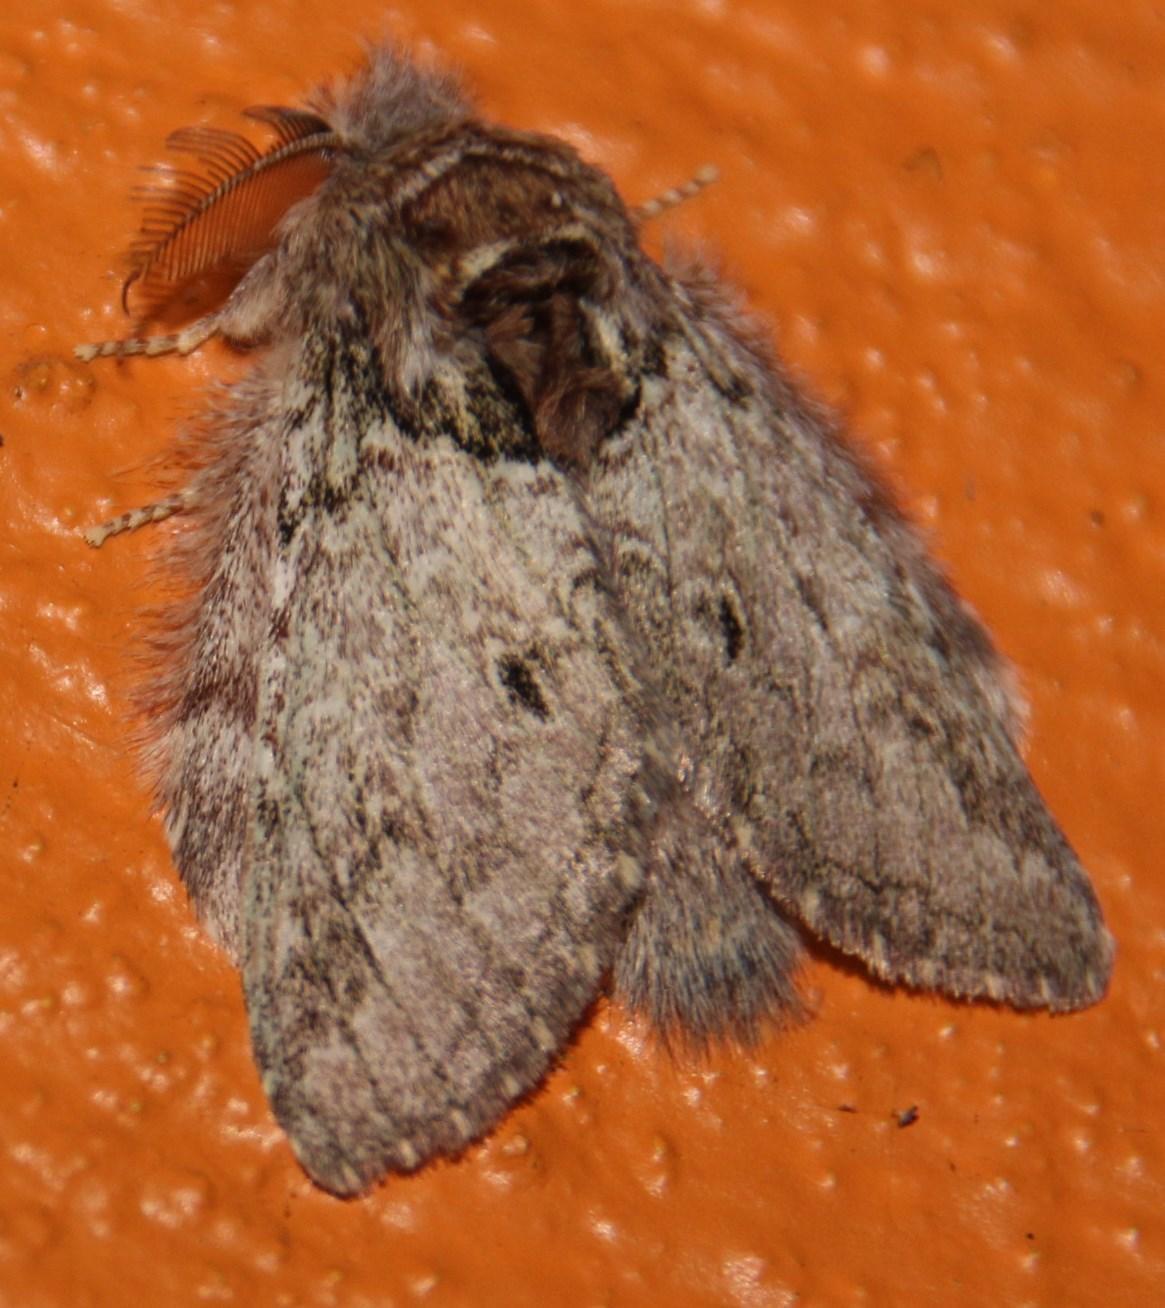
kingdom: Animalia
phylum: Arthropoda
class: Insecta
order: Lepidoptera
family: Notodontidae
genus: Desmeocraera
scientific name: Desmeocraera basalis
